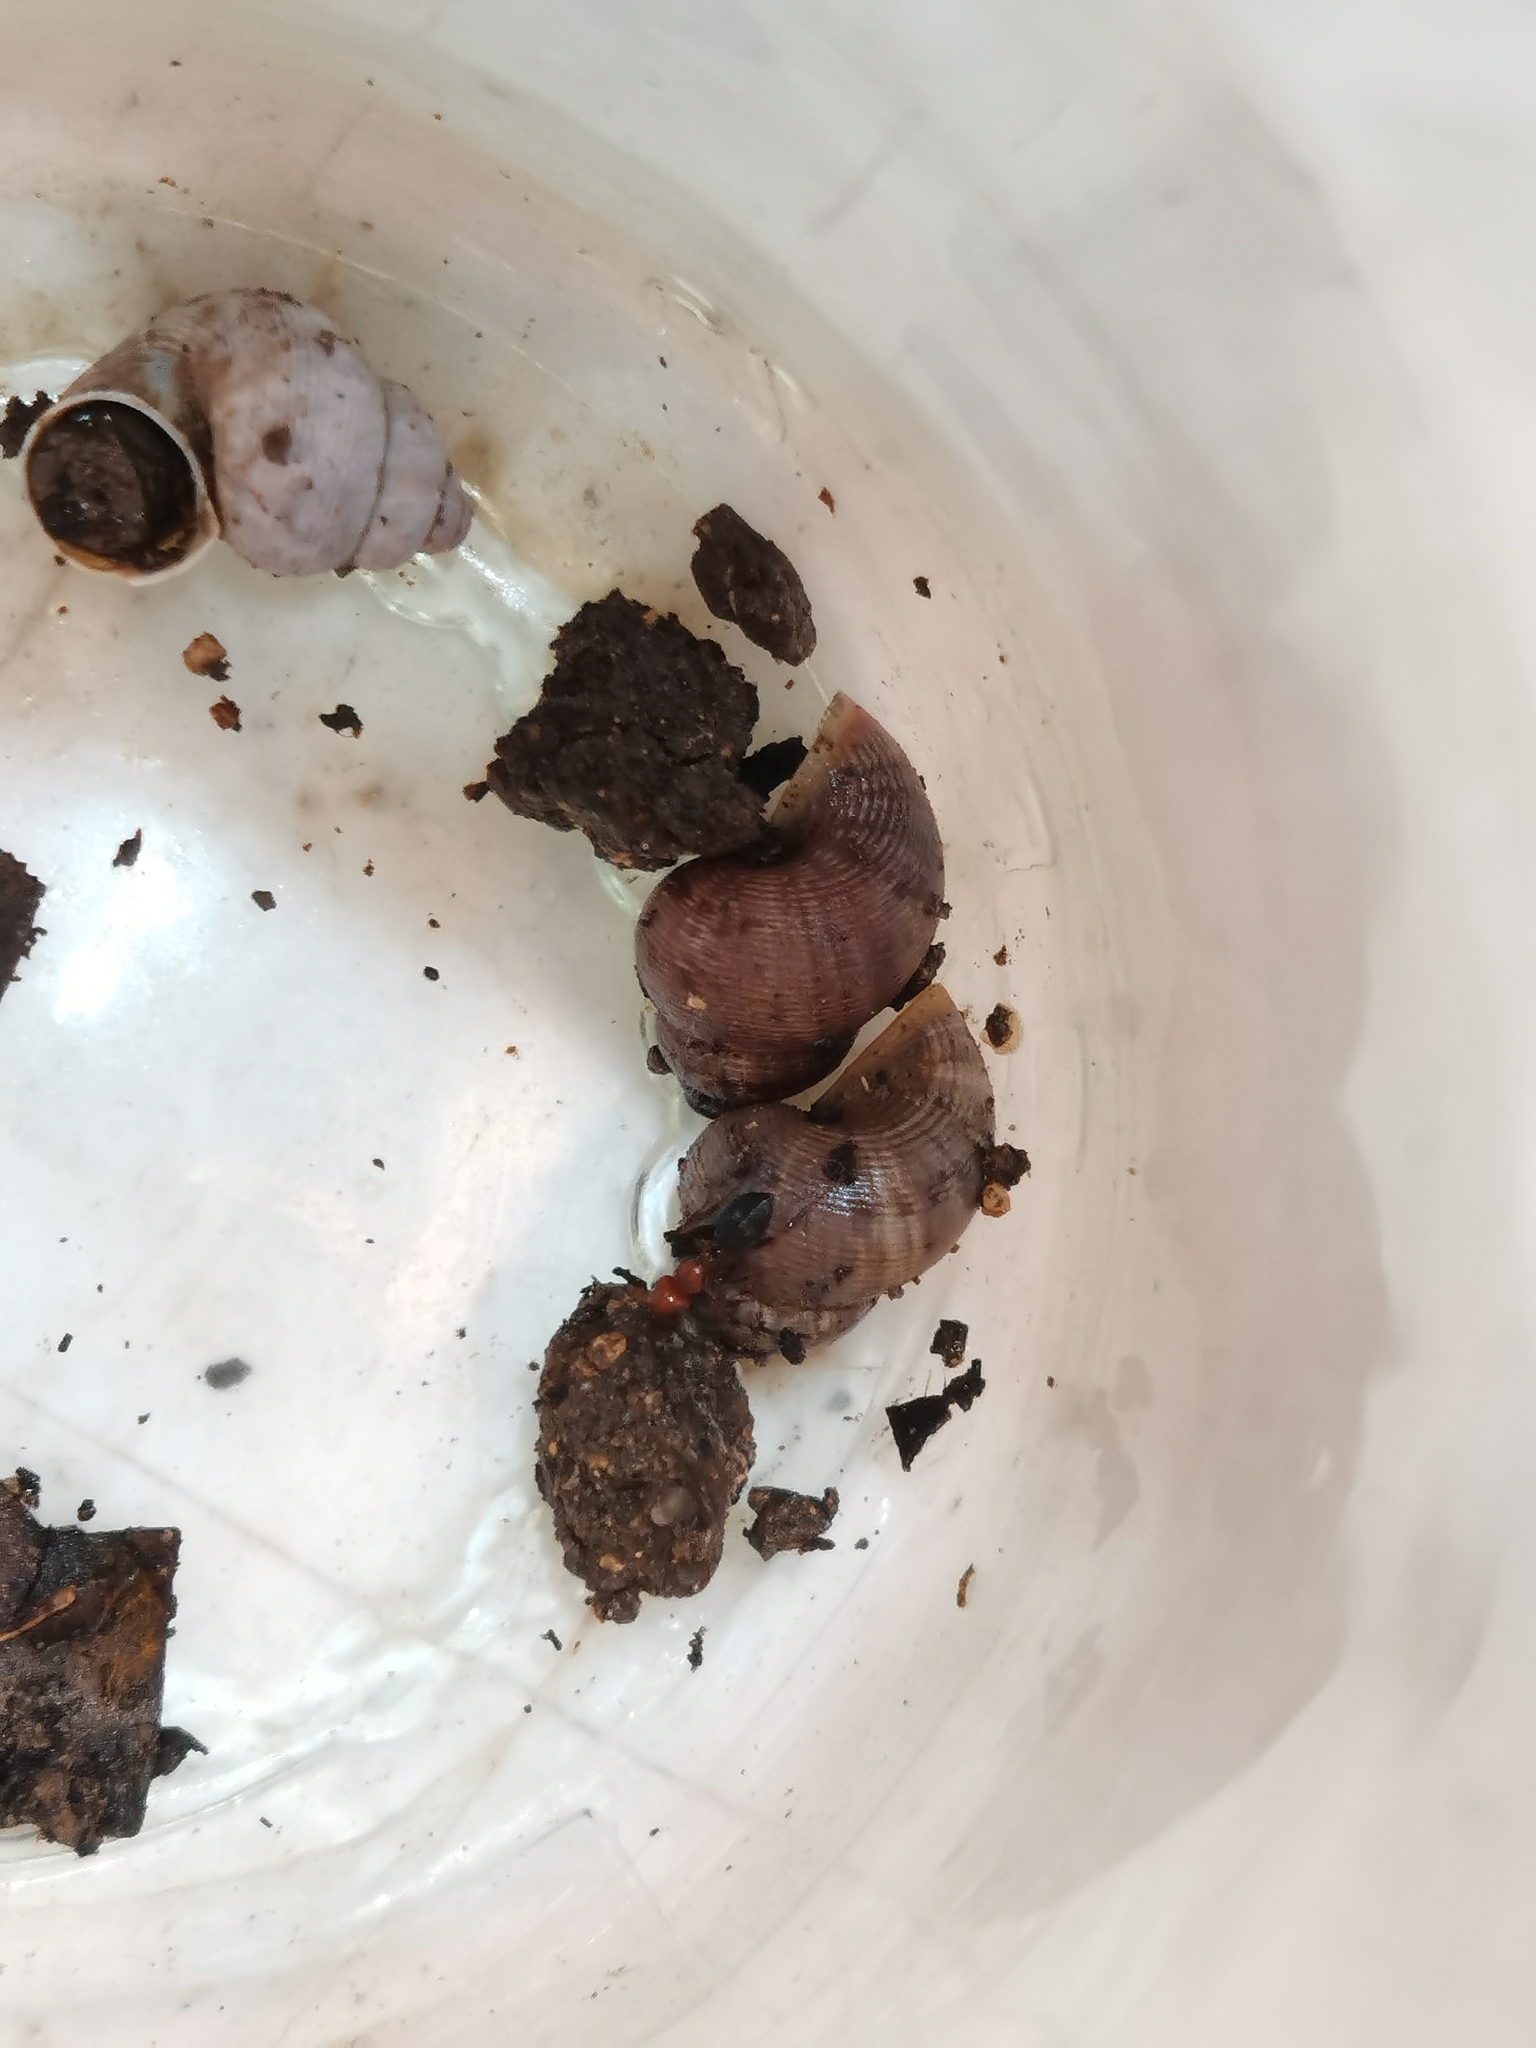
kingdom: Animalia
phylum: Mollusca
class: Gastropoda
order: Littorinimorpha
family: Pomatiidae
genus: Pomatias
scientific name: Pomatias elegans
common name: Red-mouthed snail
